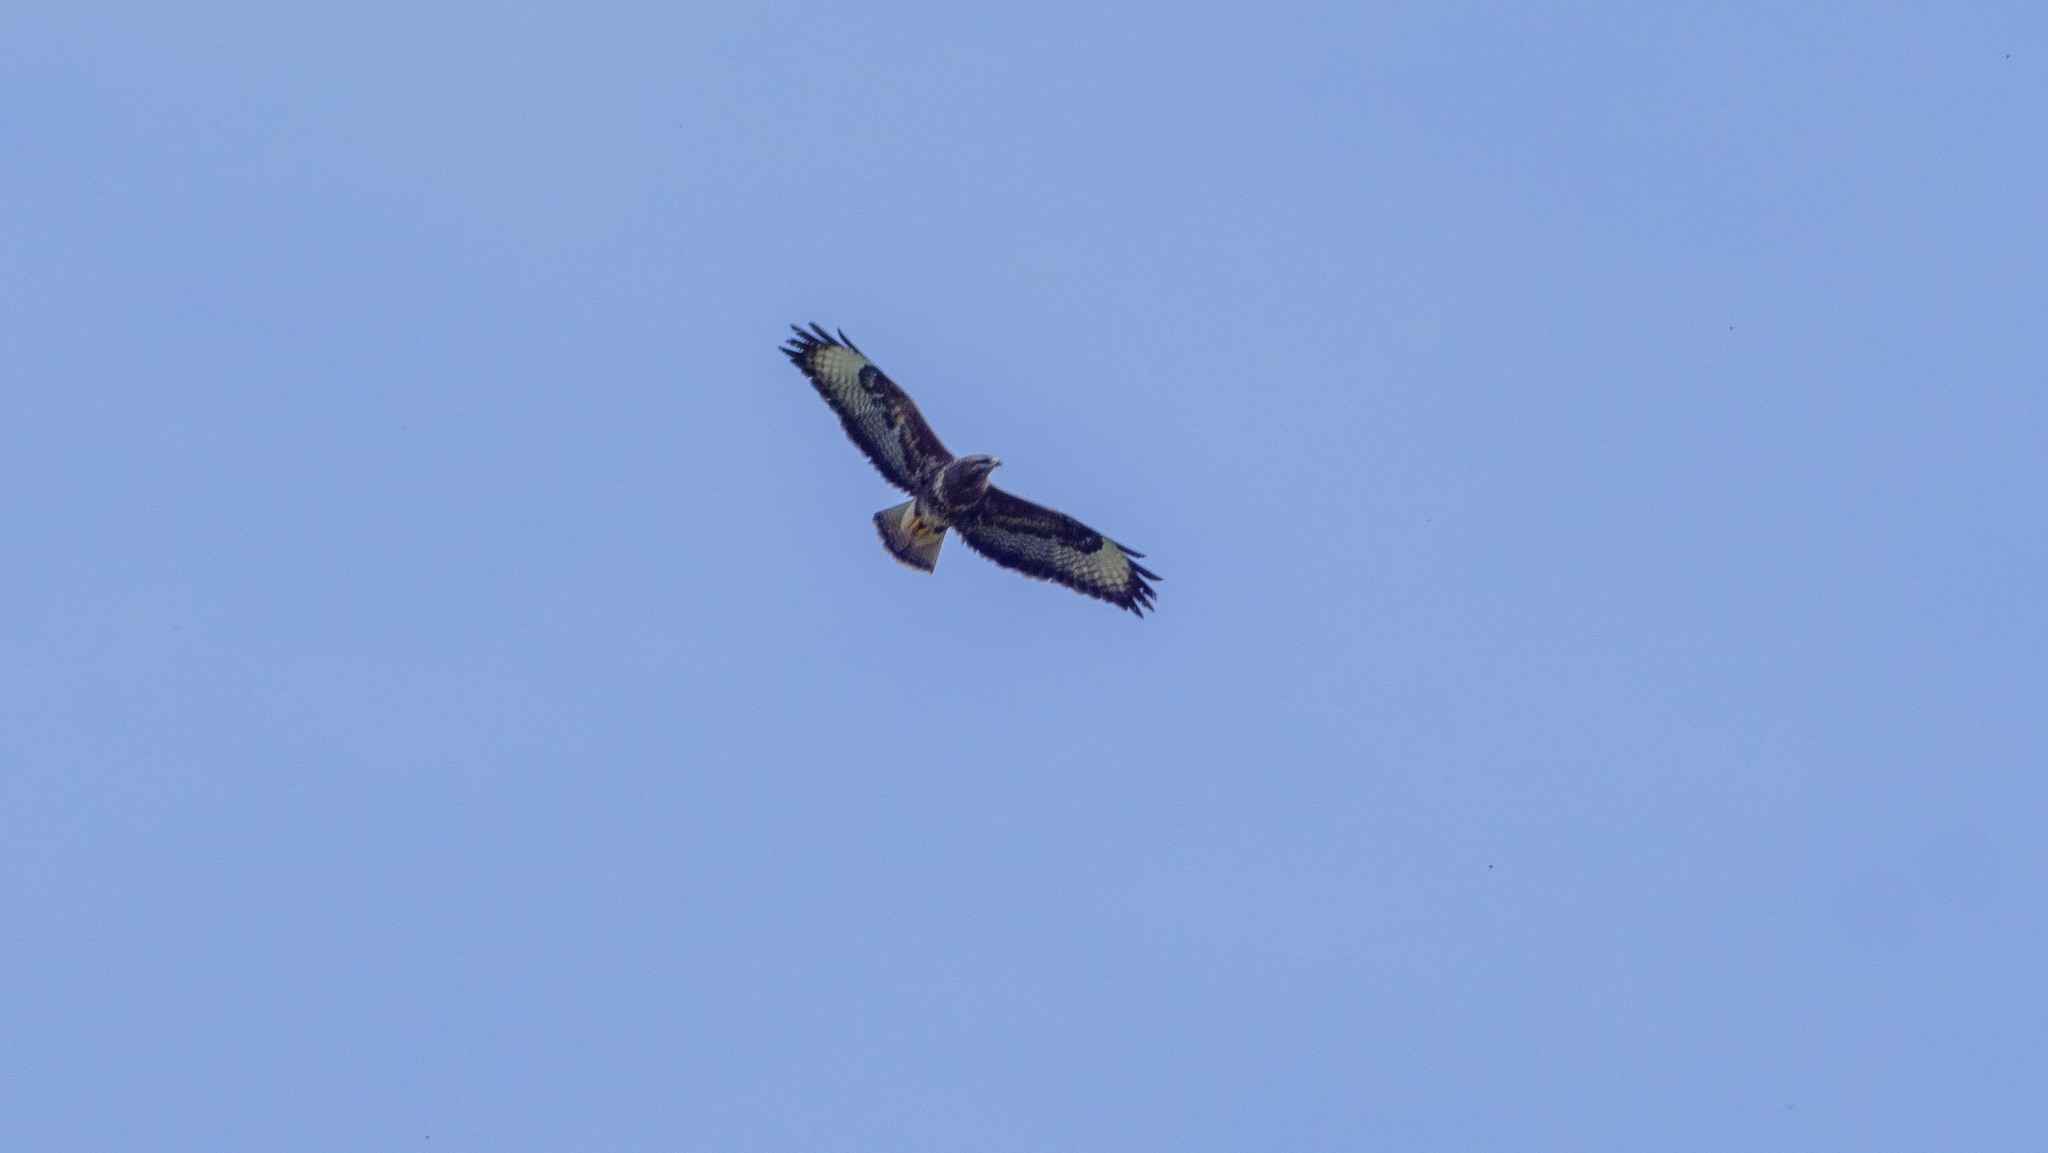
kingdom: Animalia
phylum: Chordata
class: Aves
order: Accipitriformes
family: Accipitridae
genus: Buteo
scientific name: Buteo buteo
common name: Common buzzard
